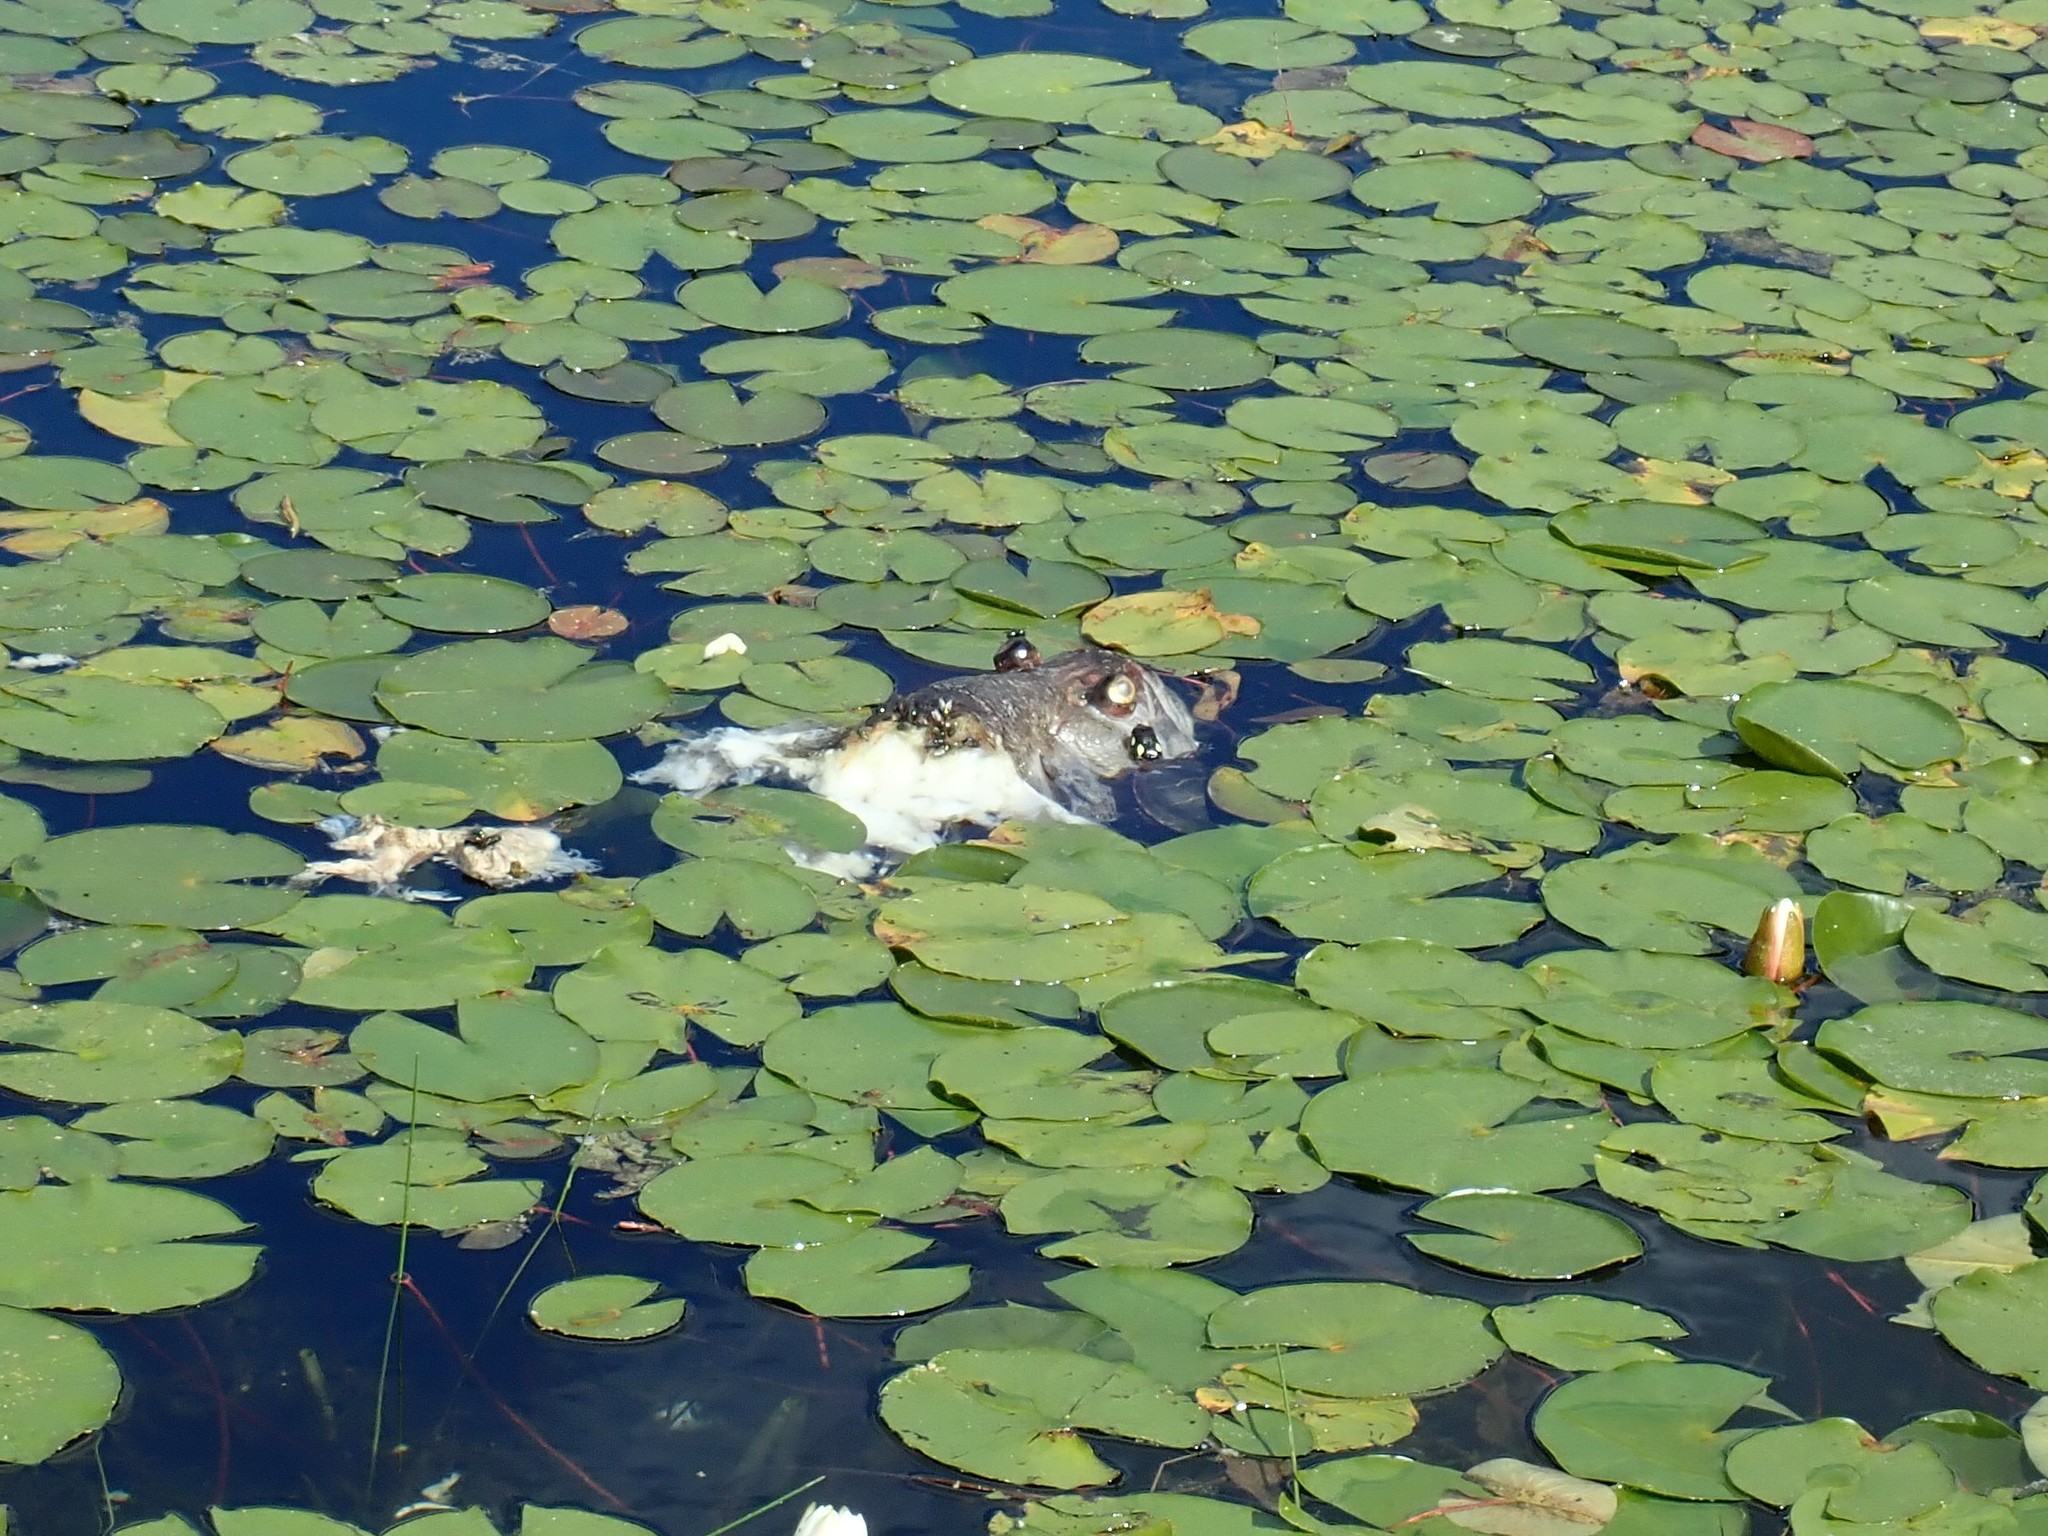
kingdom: Animalia
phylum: Chordata
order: Perciformes
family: Centrarchidae
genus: Micropterus
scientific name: Micropterus
